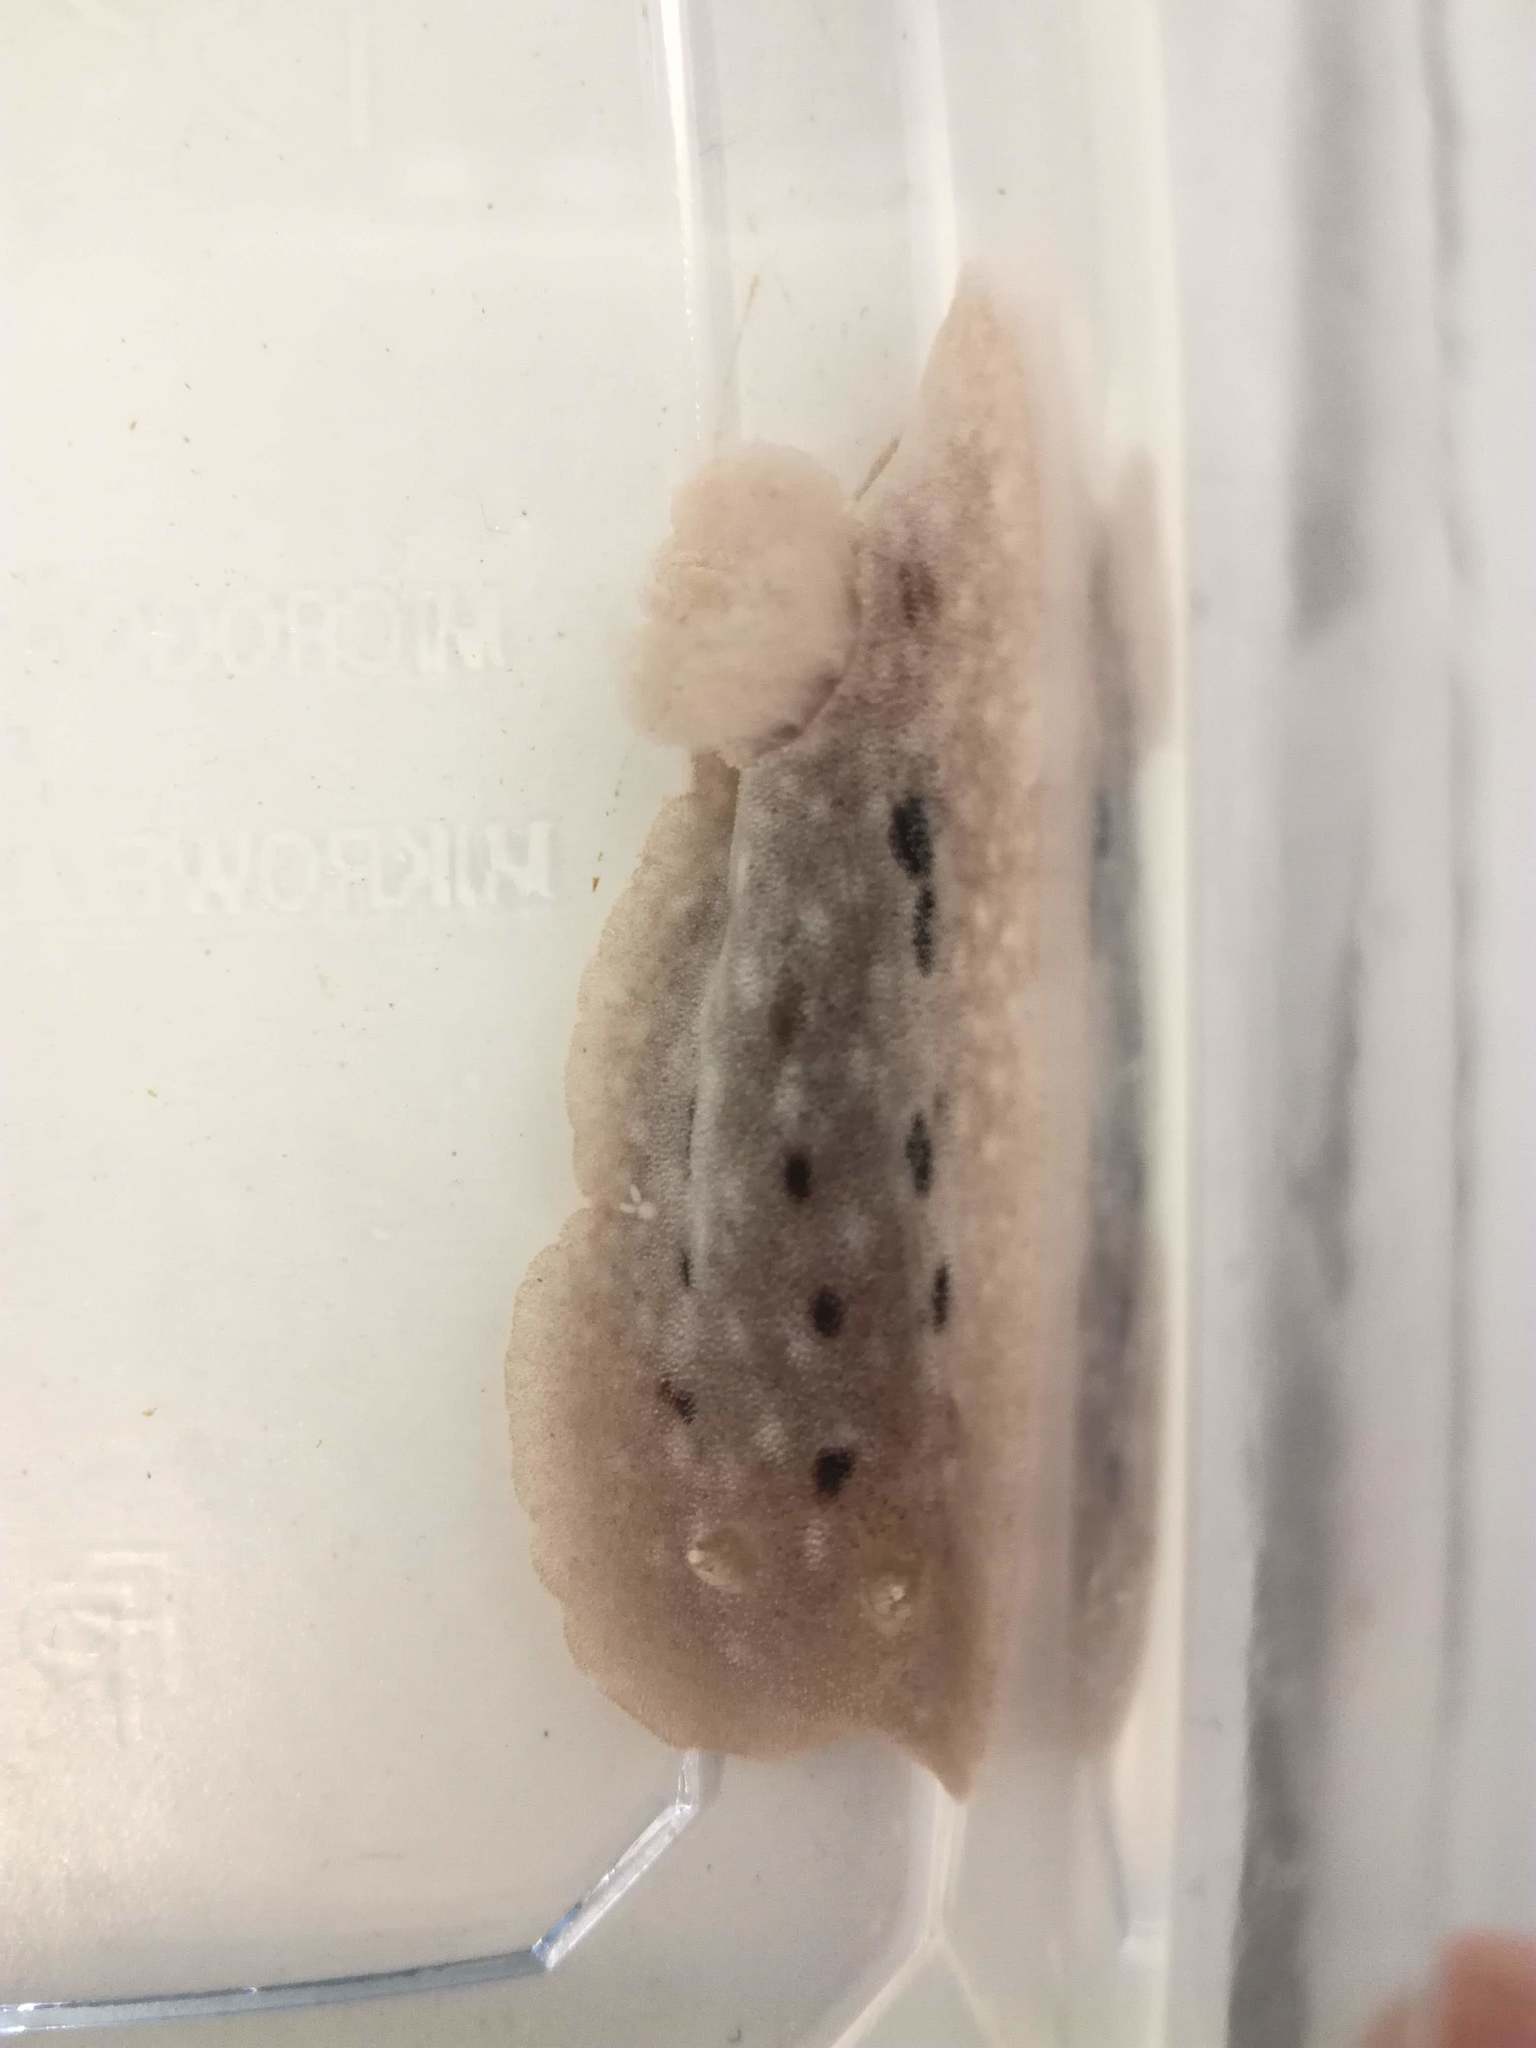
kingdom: Animalia
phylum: Mollusca
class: Gastropoda
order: Nudibranchia
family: Discodorididae
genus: Jorunna
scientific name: Jorunna tomentosa
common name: Grey sea slug
